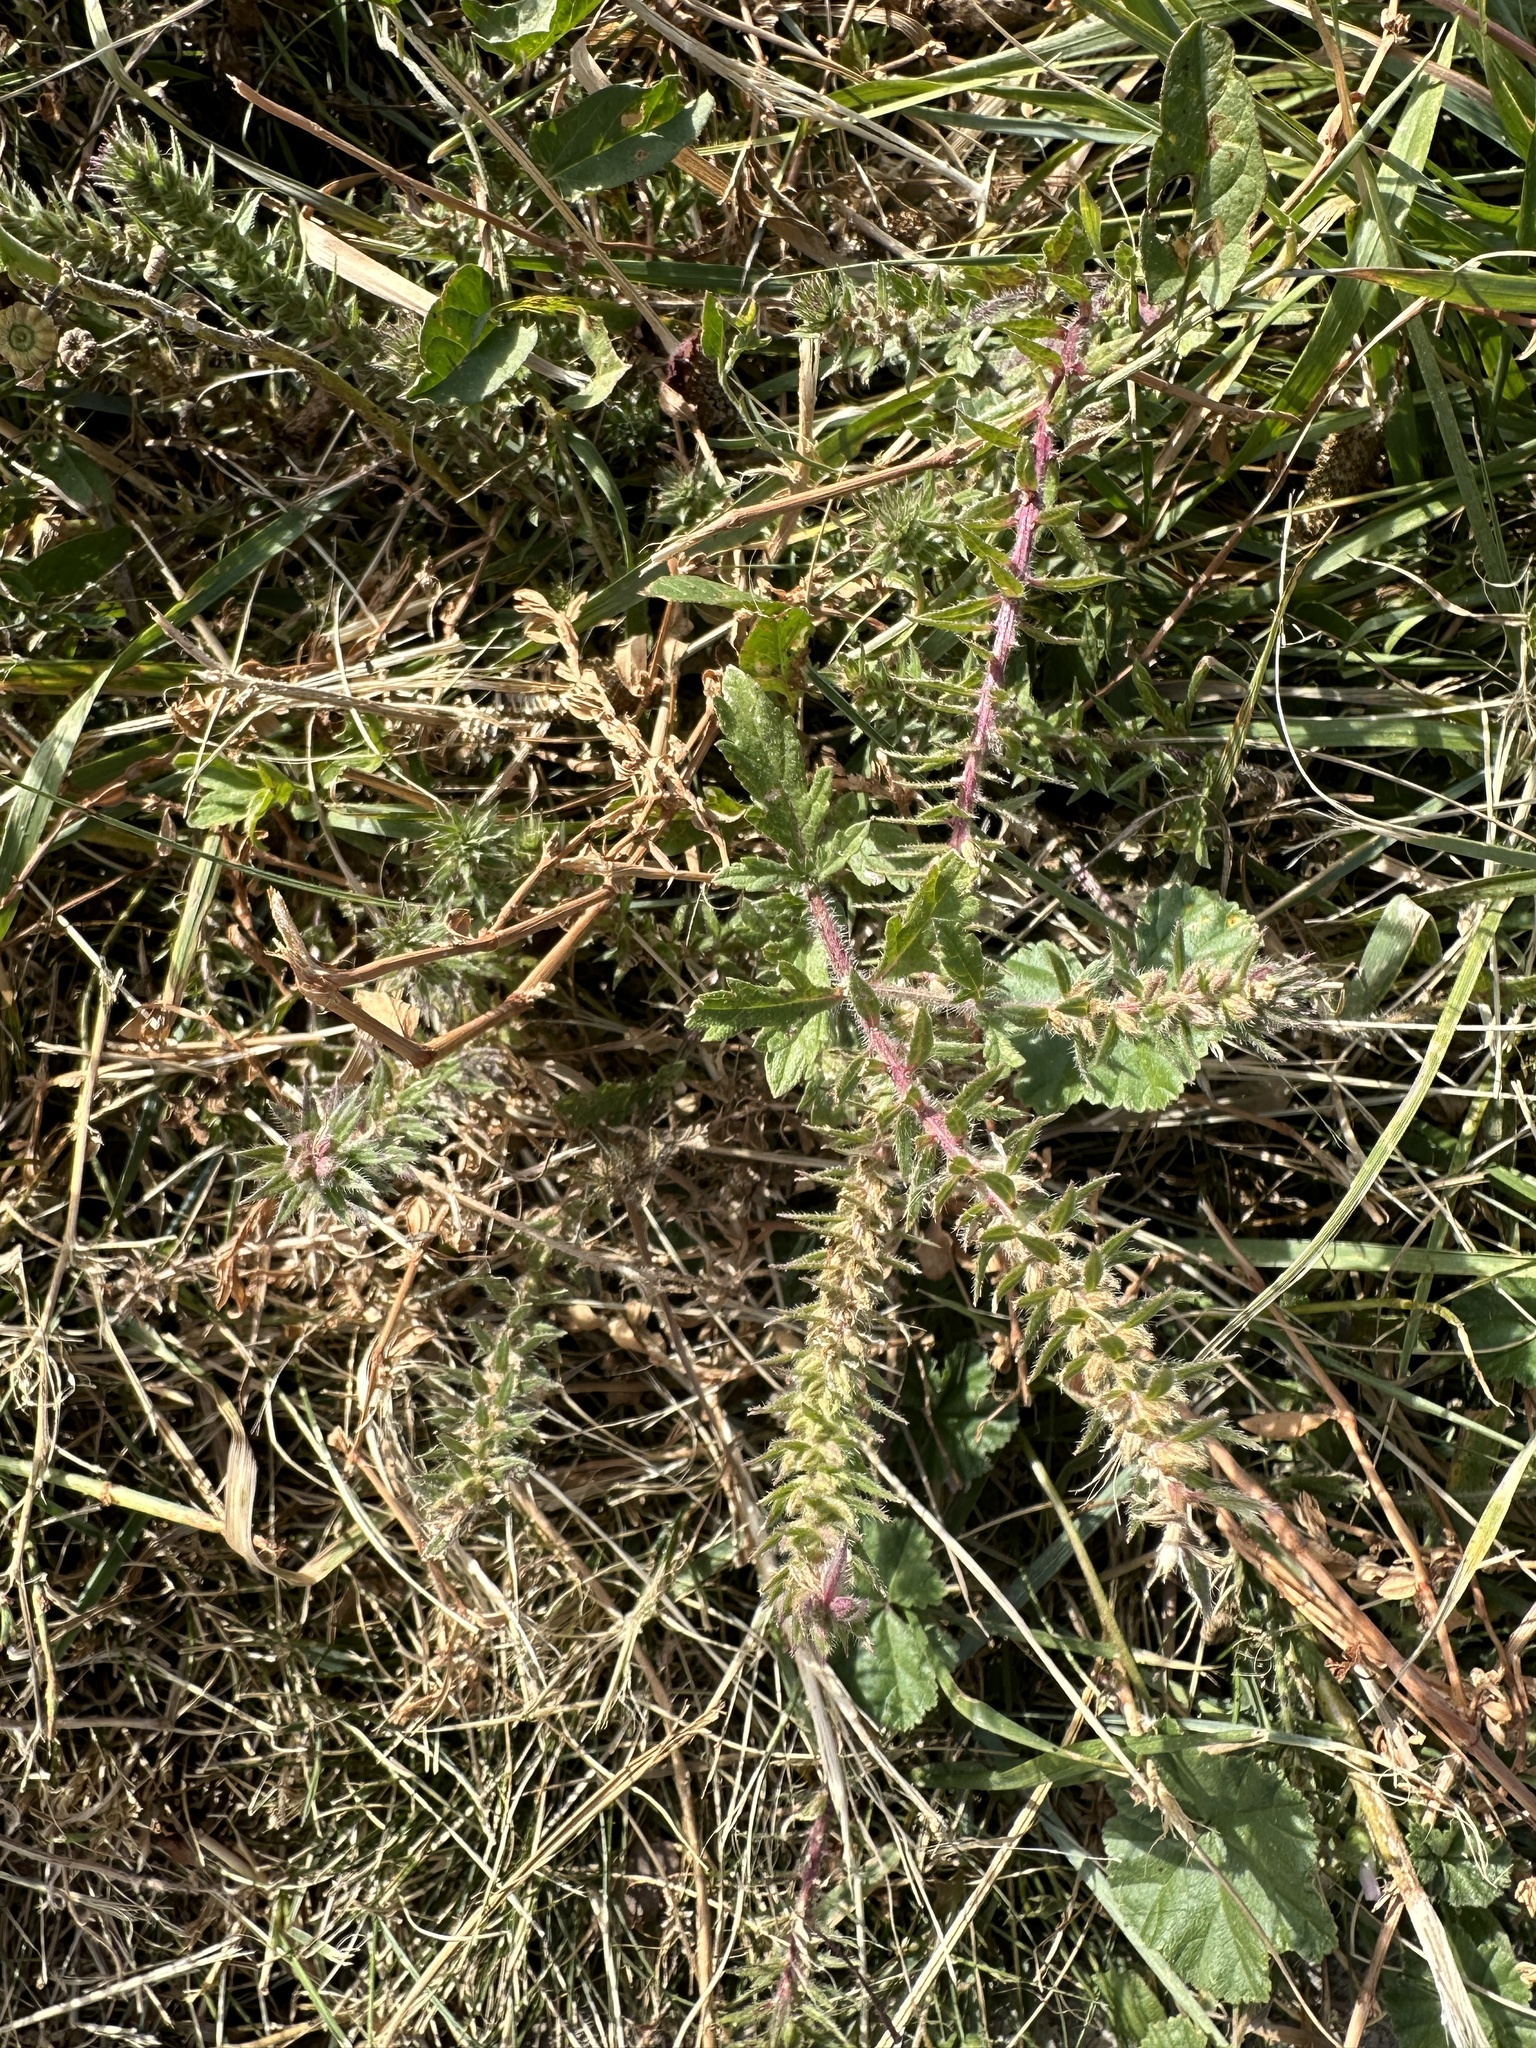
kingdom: Plantae
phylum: Tracheophyta
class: Magnoliopsida
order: Lamiales
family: Verbenaceae
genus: Verbena
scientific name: Verbena bracteata
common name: Bracted vervain
